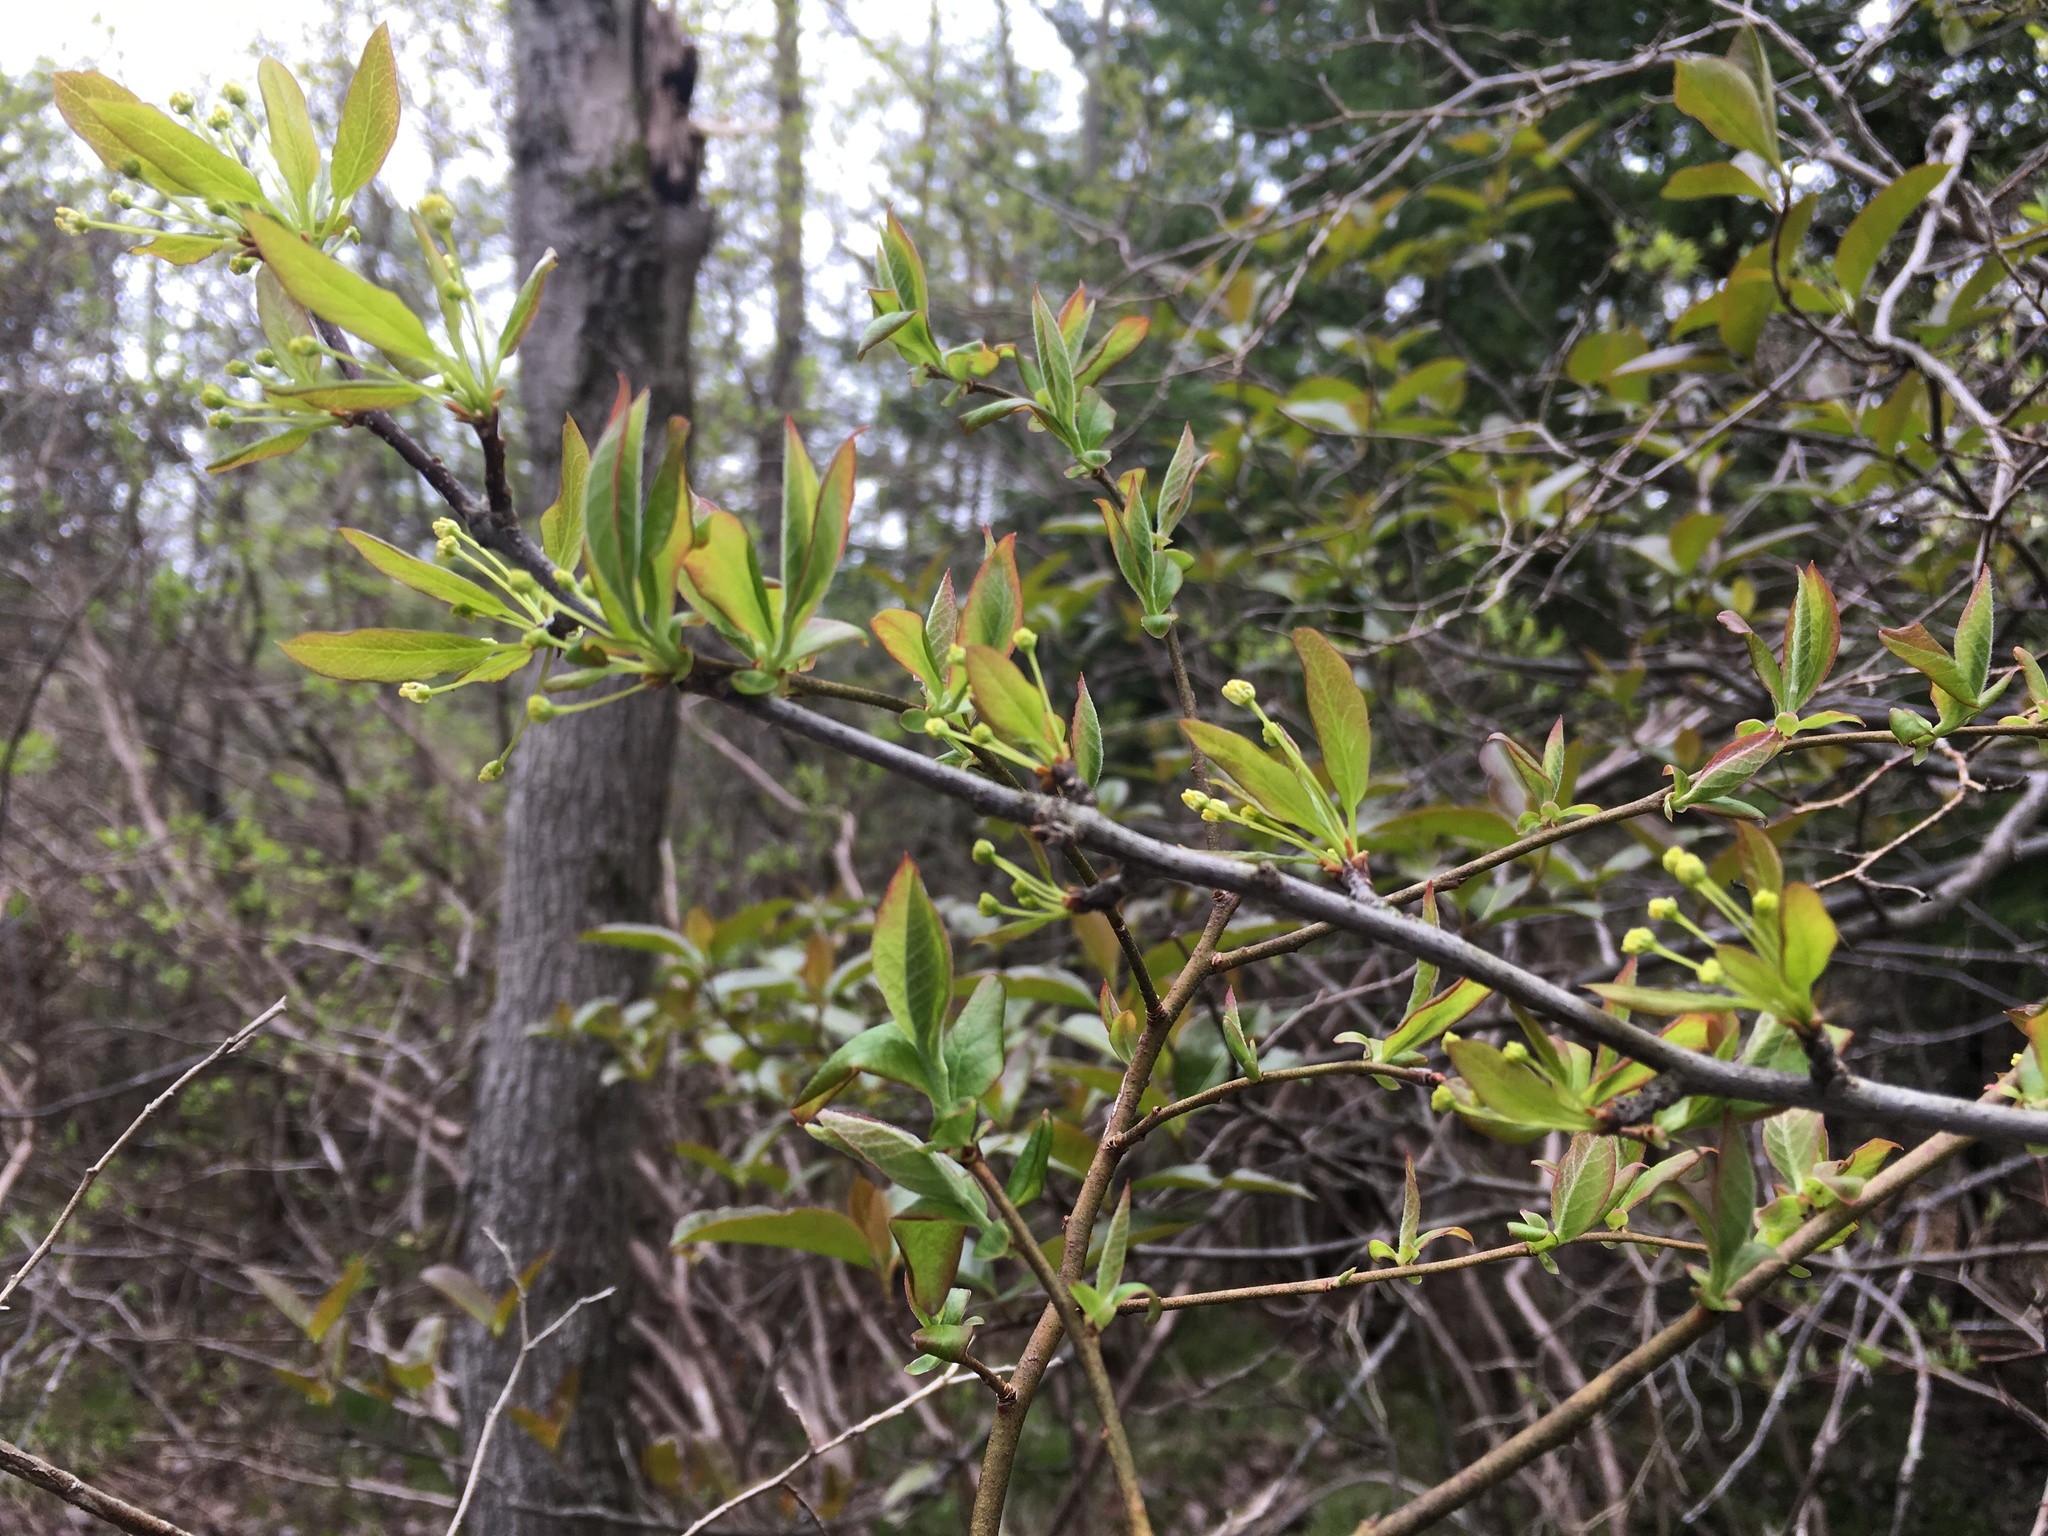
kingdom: Plantae
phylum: Tracheophyta
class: Magnoliopsida
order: Aquifoliales
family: Aquifoliaceae
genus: Ilex
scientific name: Ilex mucronata
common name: Catberry
